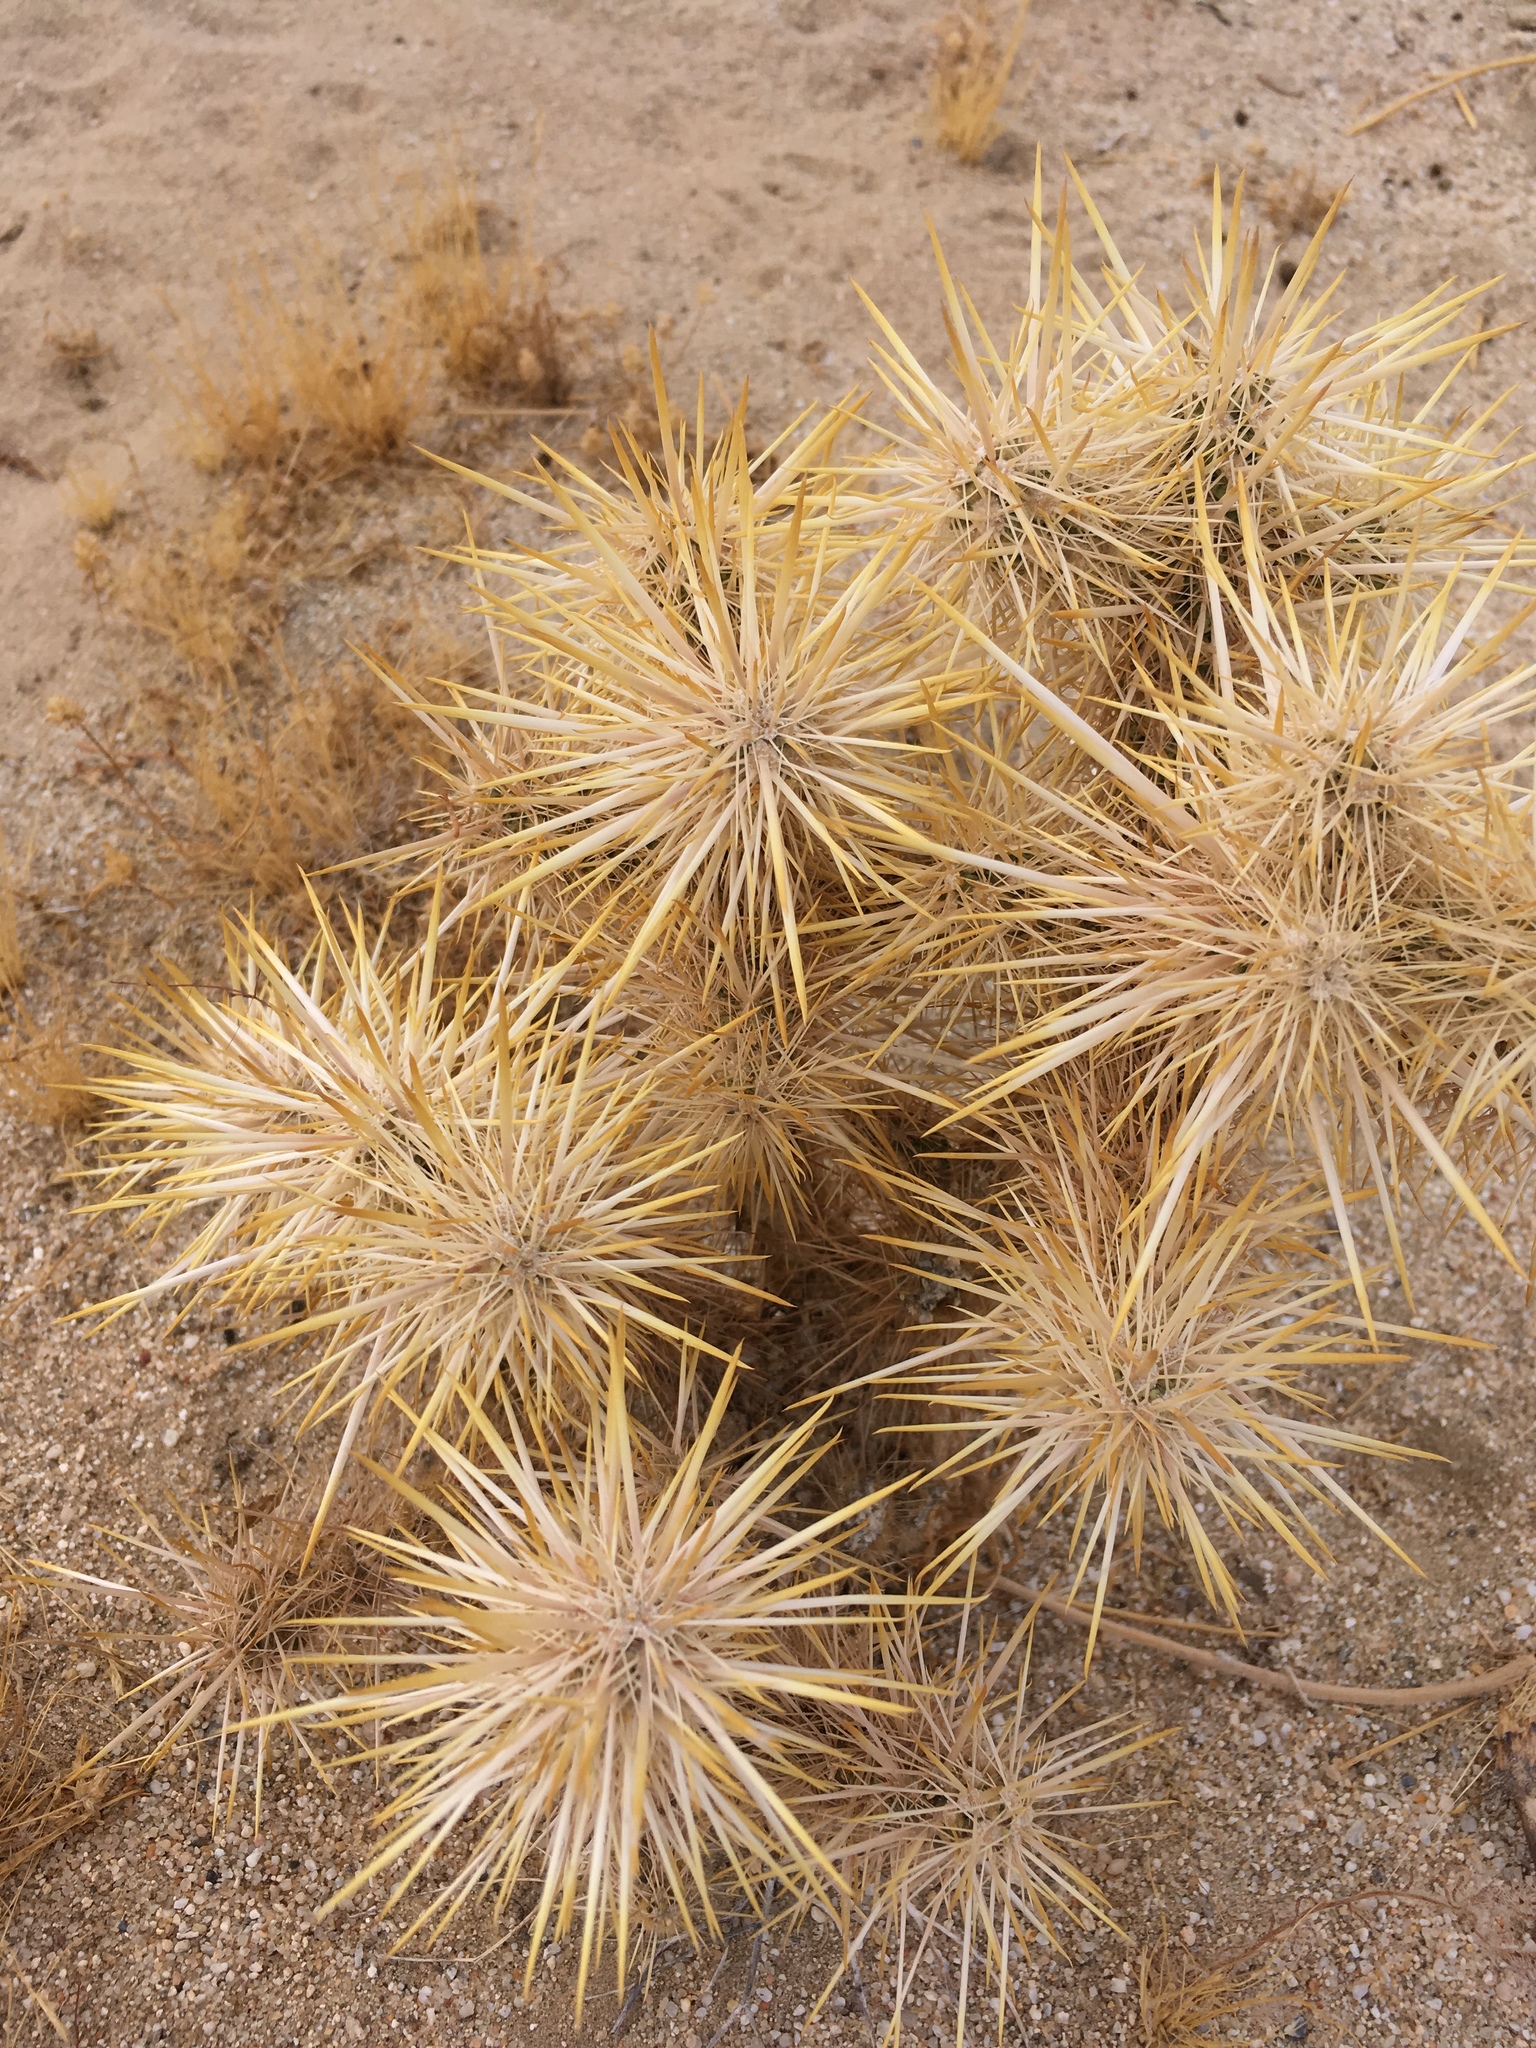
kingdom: Plantae
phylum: Tracheophyta
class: Magnoliopsida
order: Caryophyllales
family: Cactaceae
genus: Cylindropuntia
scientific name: Cylindropuntia echinocarpa
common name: Ground cholla
